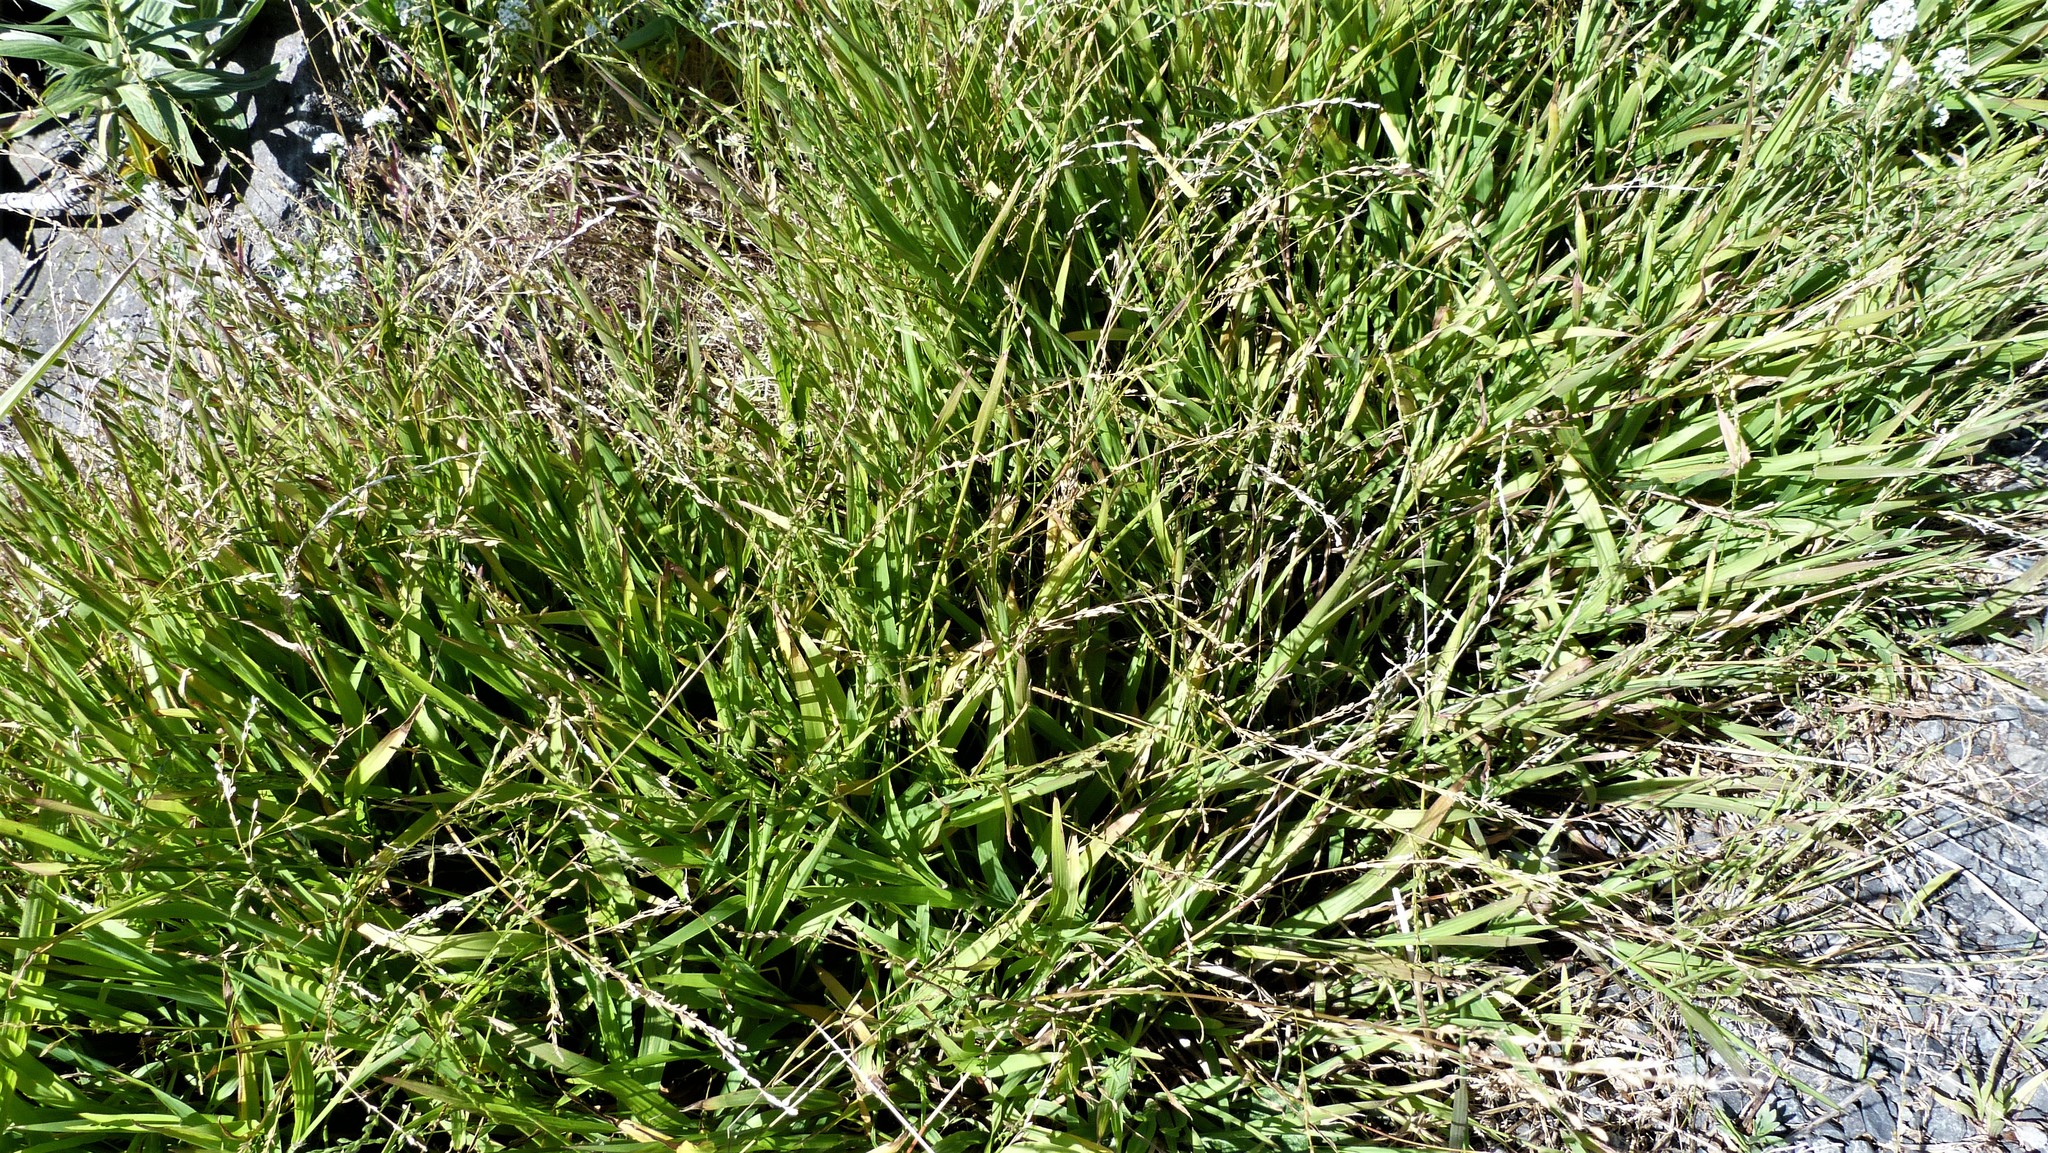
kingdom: Plantae
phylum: Tracheophyta
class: Liliopsida
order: Poales
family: Poaceae
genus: Ehrharta
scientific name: Ehrharta erecta
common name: Panic veldtgrass
